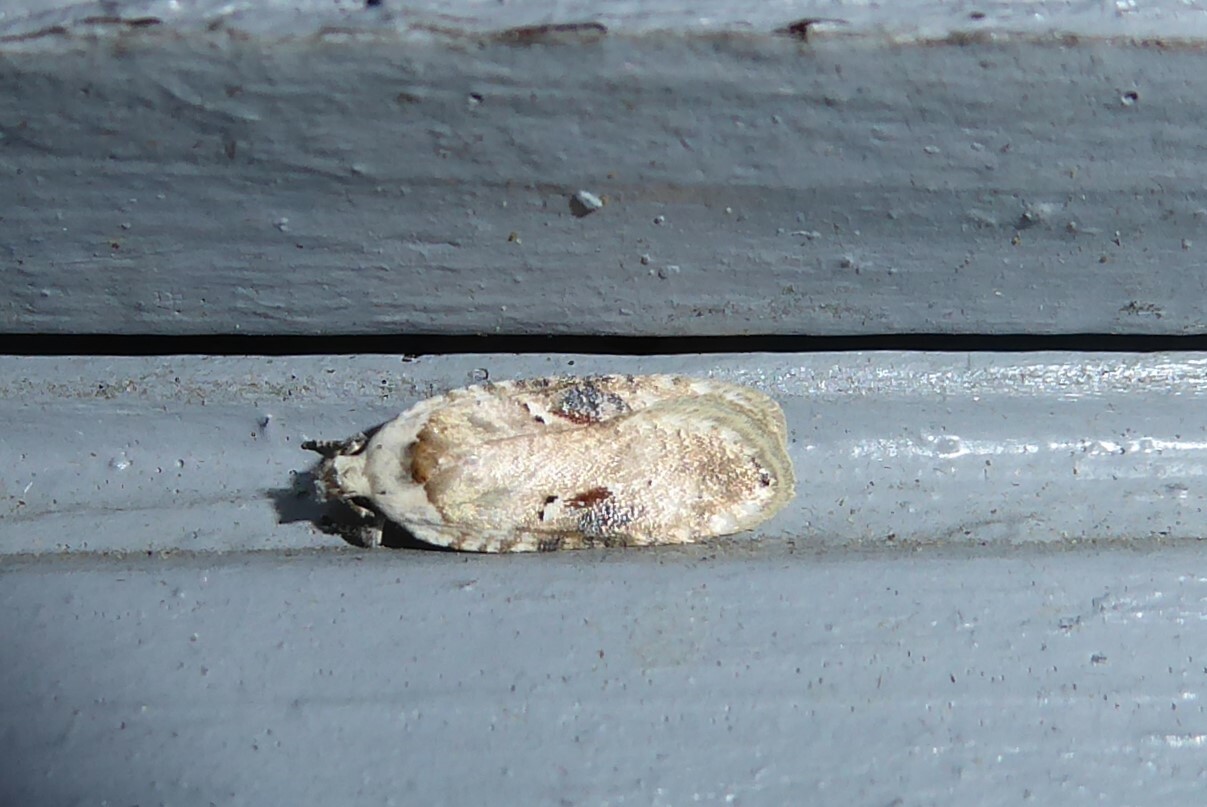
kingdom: Animalia
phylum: Arthropoda
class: Insecta
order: Lepidoptera
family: Depressariidae
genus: Agonopterix
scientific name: Agonopterix alstroemeriana
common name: Moth
